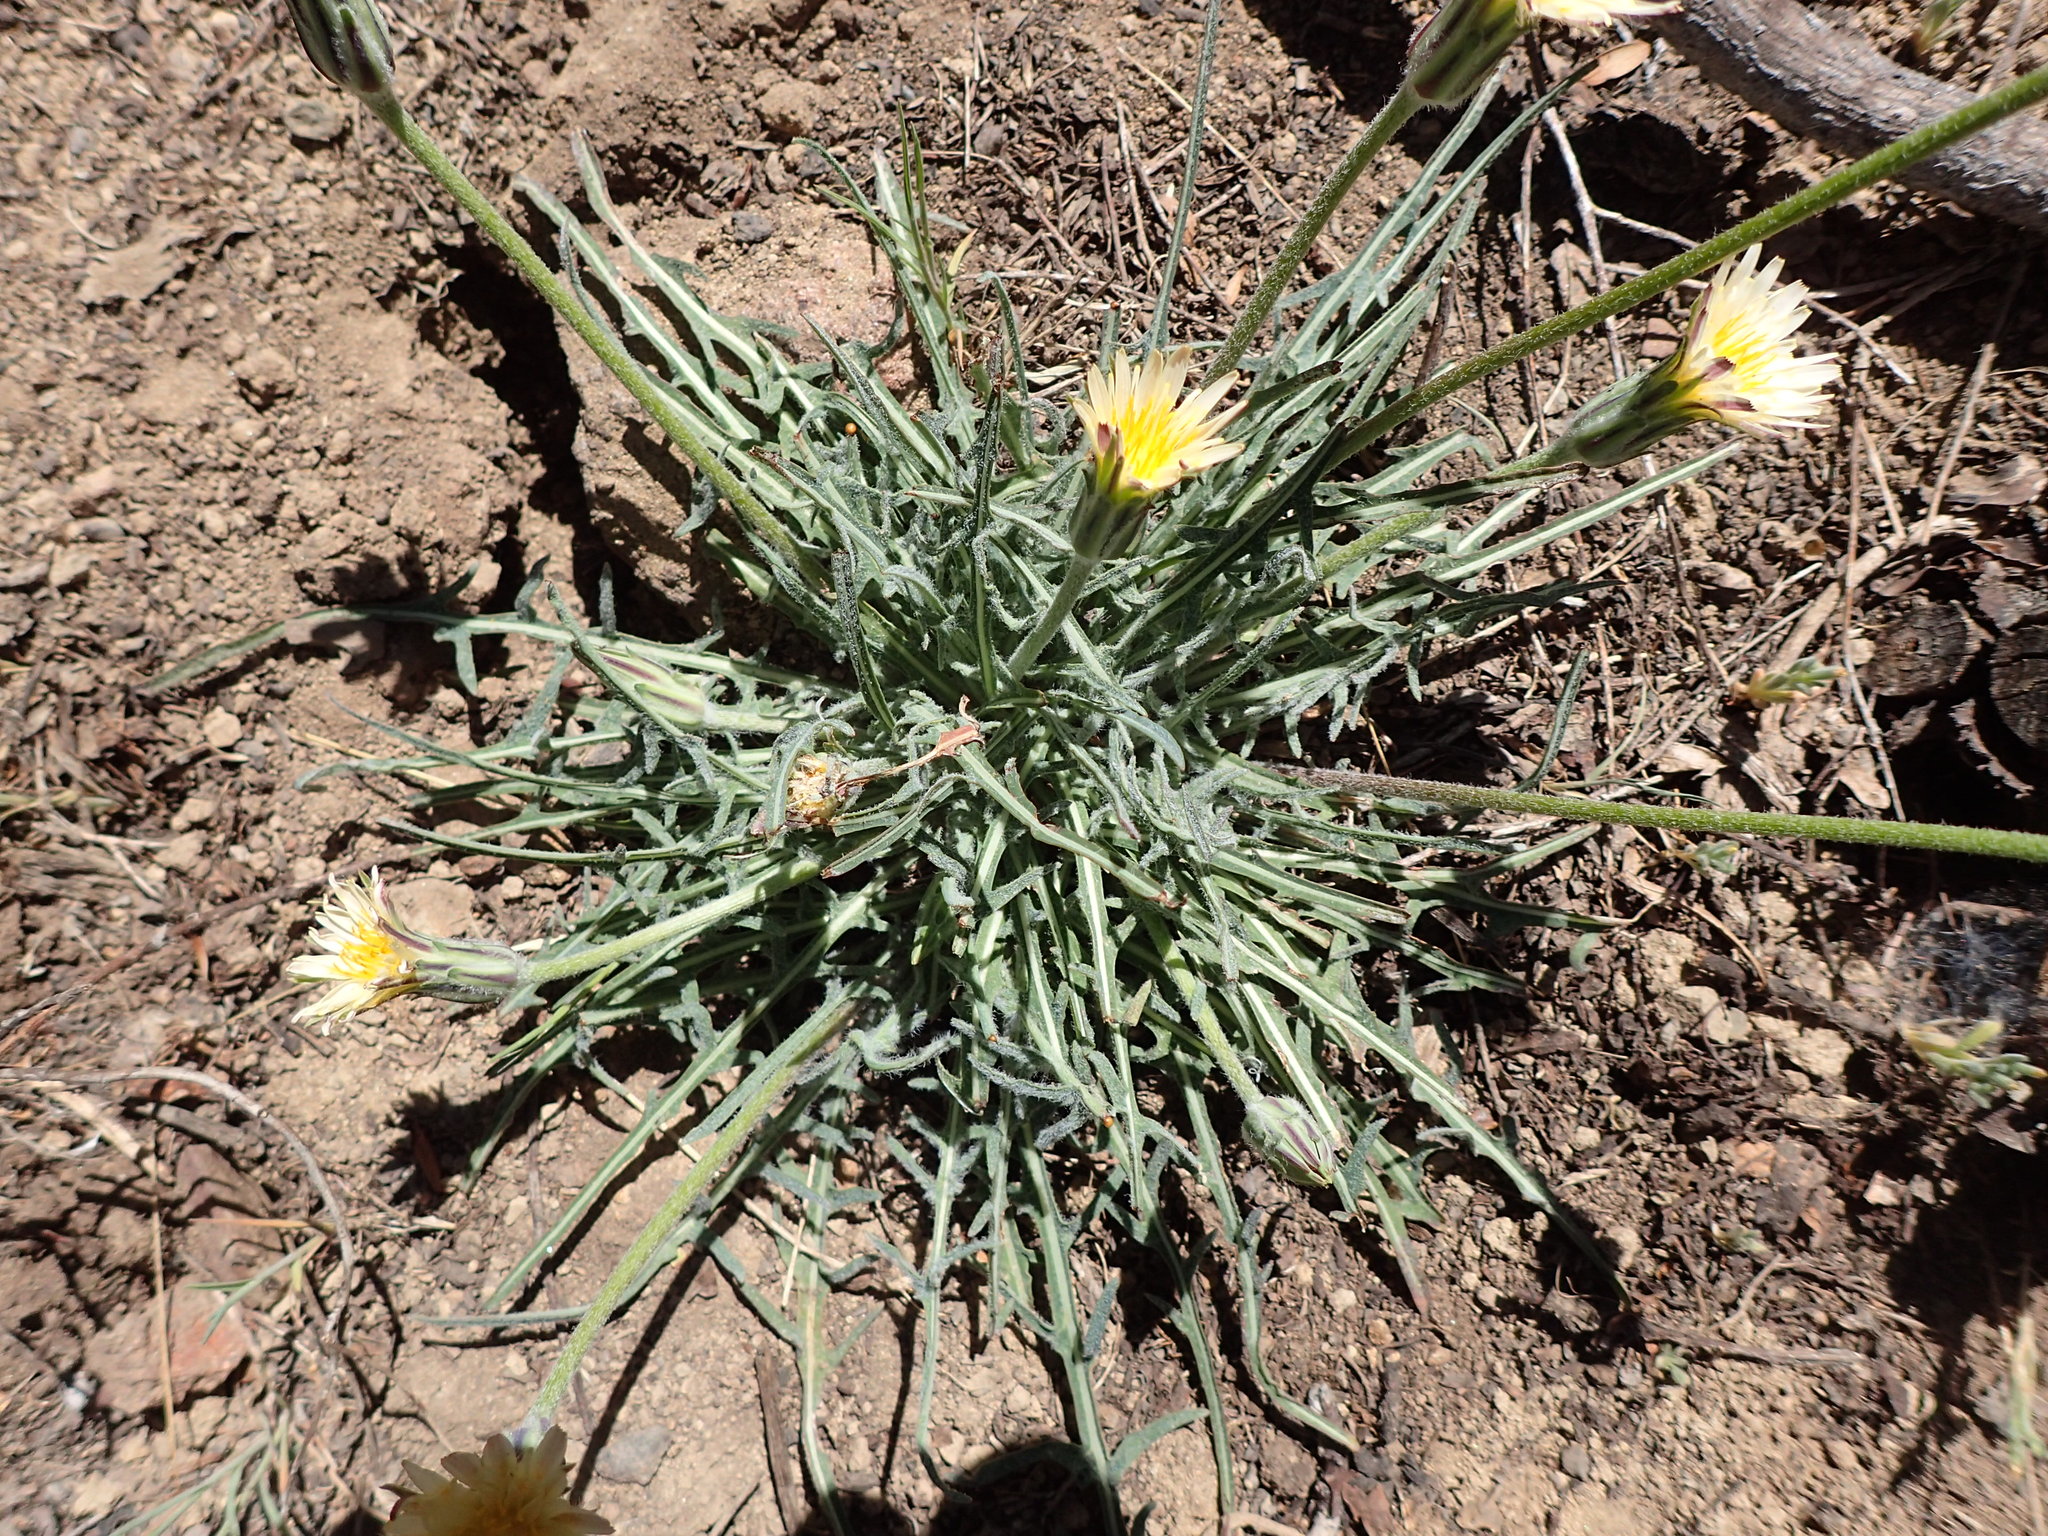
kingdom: Plantae
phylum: Tracheophyta
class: Magnoliopsida
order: Asterales
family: Asteraceae
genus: Agoseris
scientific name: Agoseris retrorsa
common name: Spearleaf agoseris
